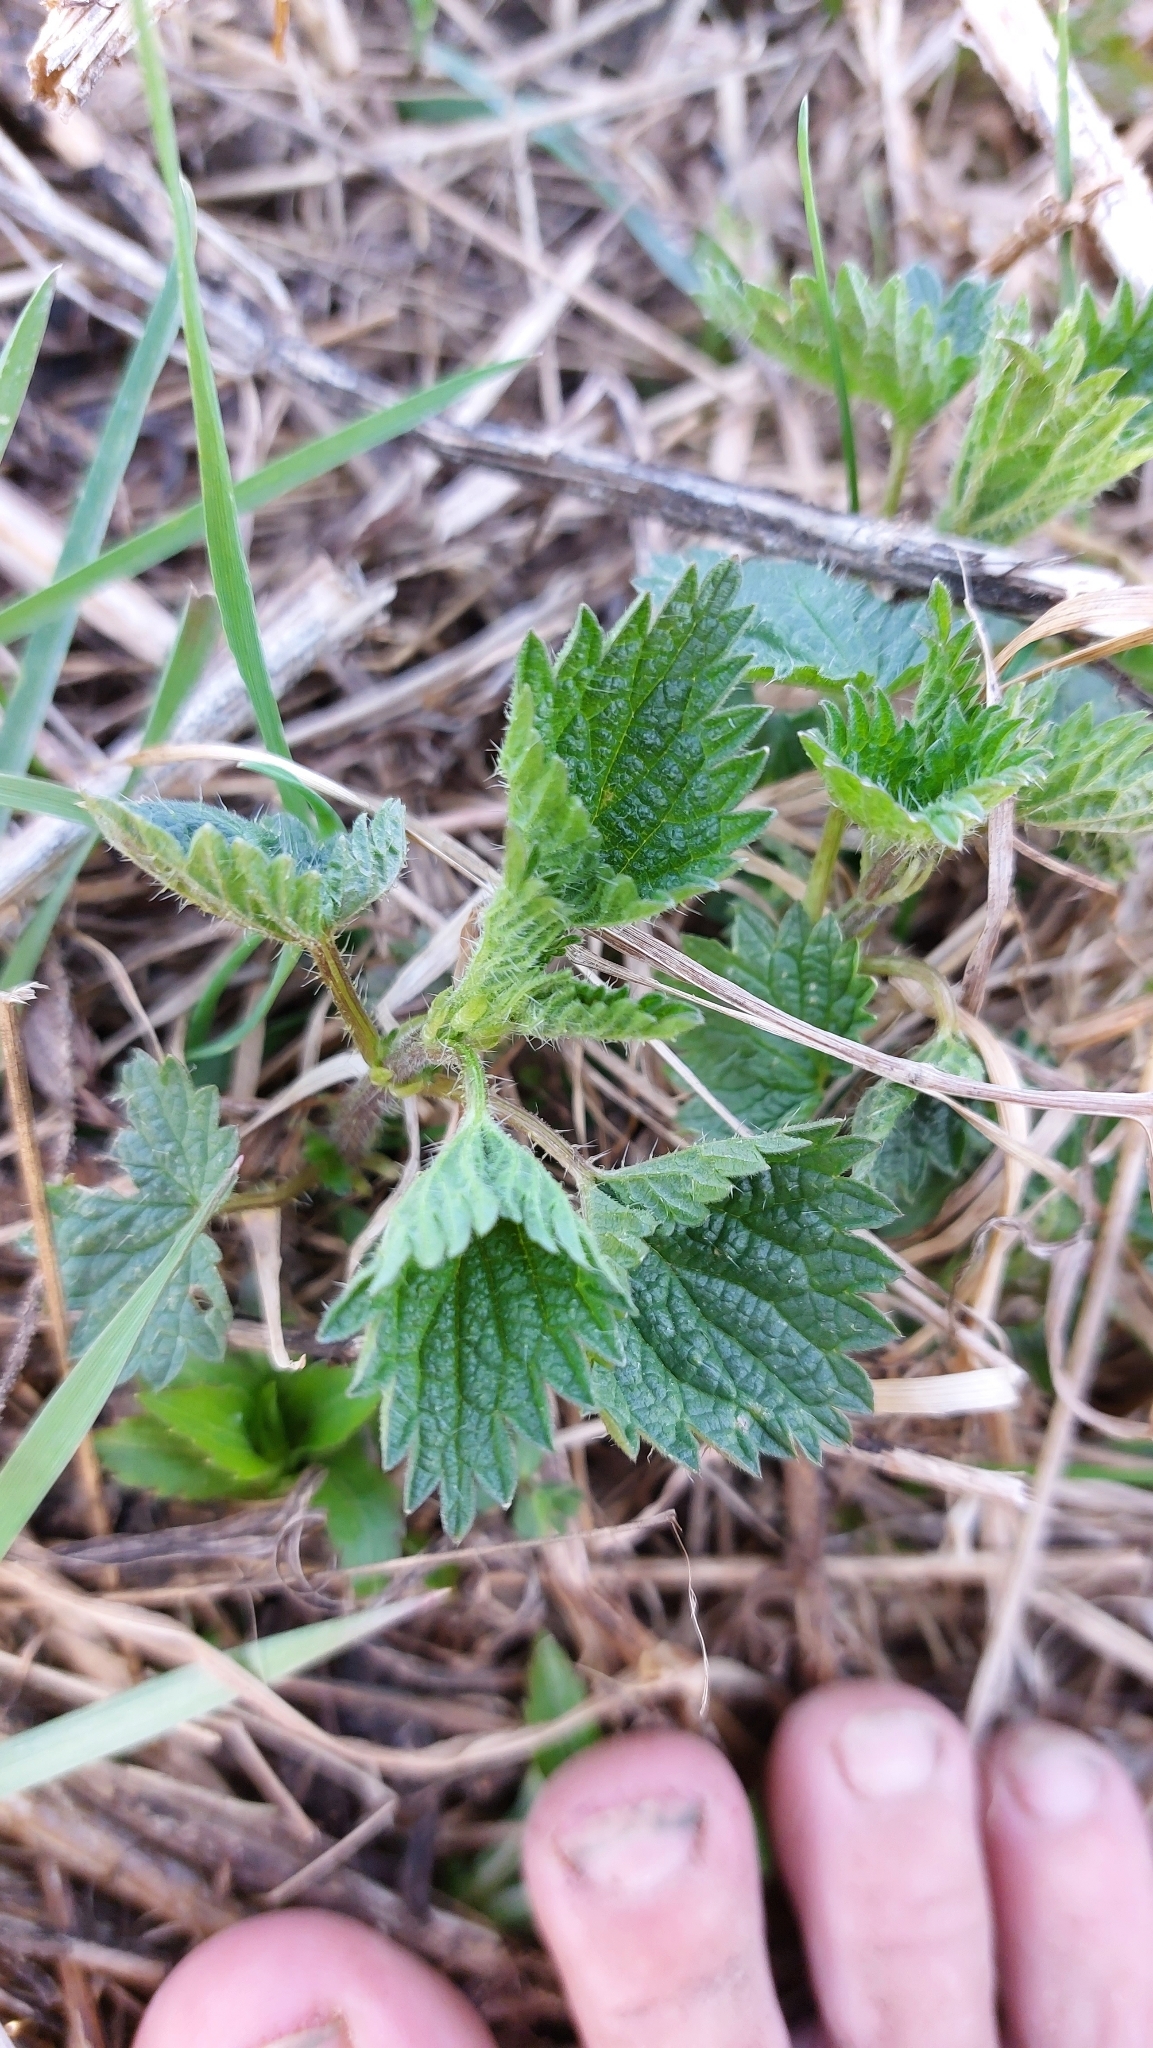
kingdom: Plantae
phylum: Tracheophyta
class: Magnoliopsida
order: Rosales
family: Urticaceae
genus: Urtica
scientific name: Urtica dioica
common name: Common nettle
